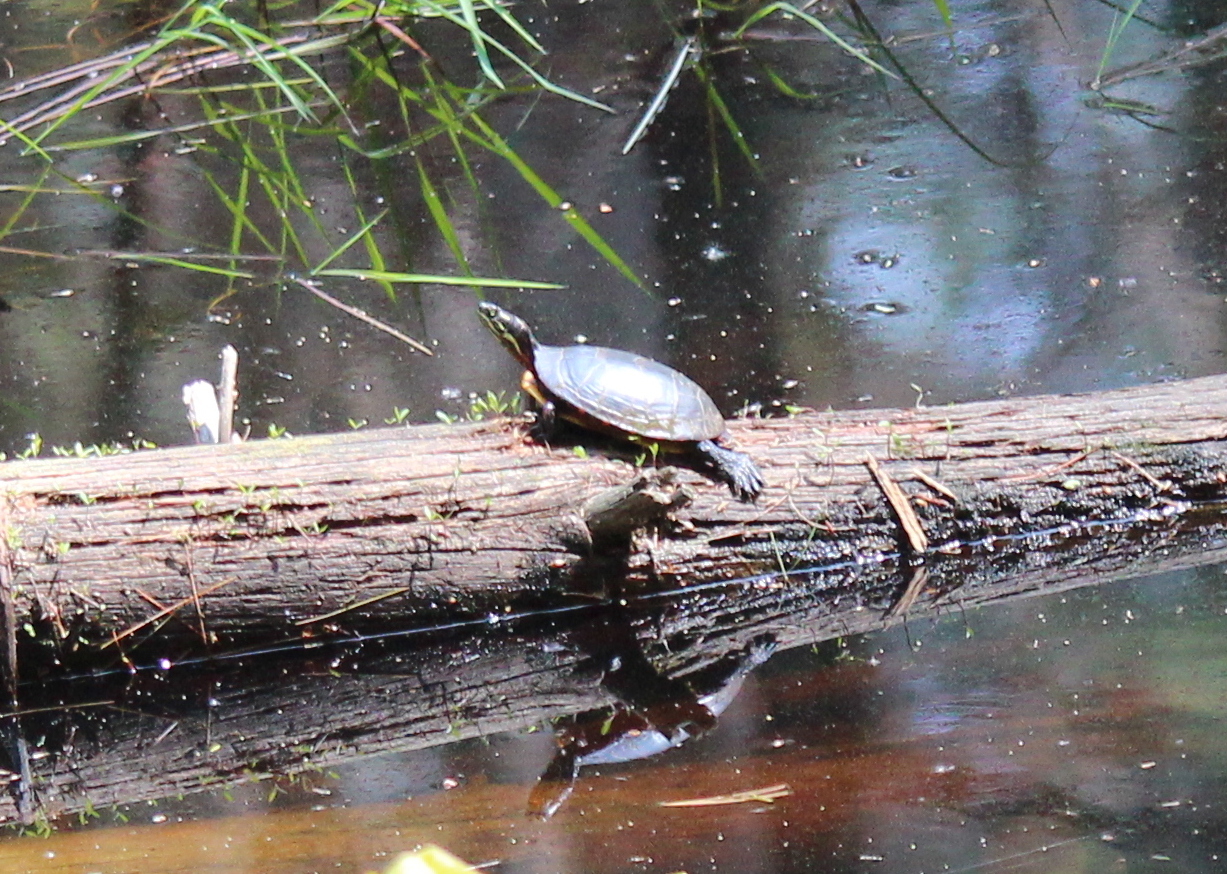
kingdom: Animalia
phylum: Chordata
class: Testudines
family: Emydidae
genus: Chrysemys
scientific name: Chrysemys picta
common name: Painted turtle
